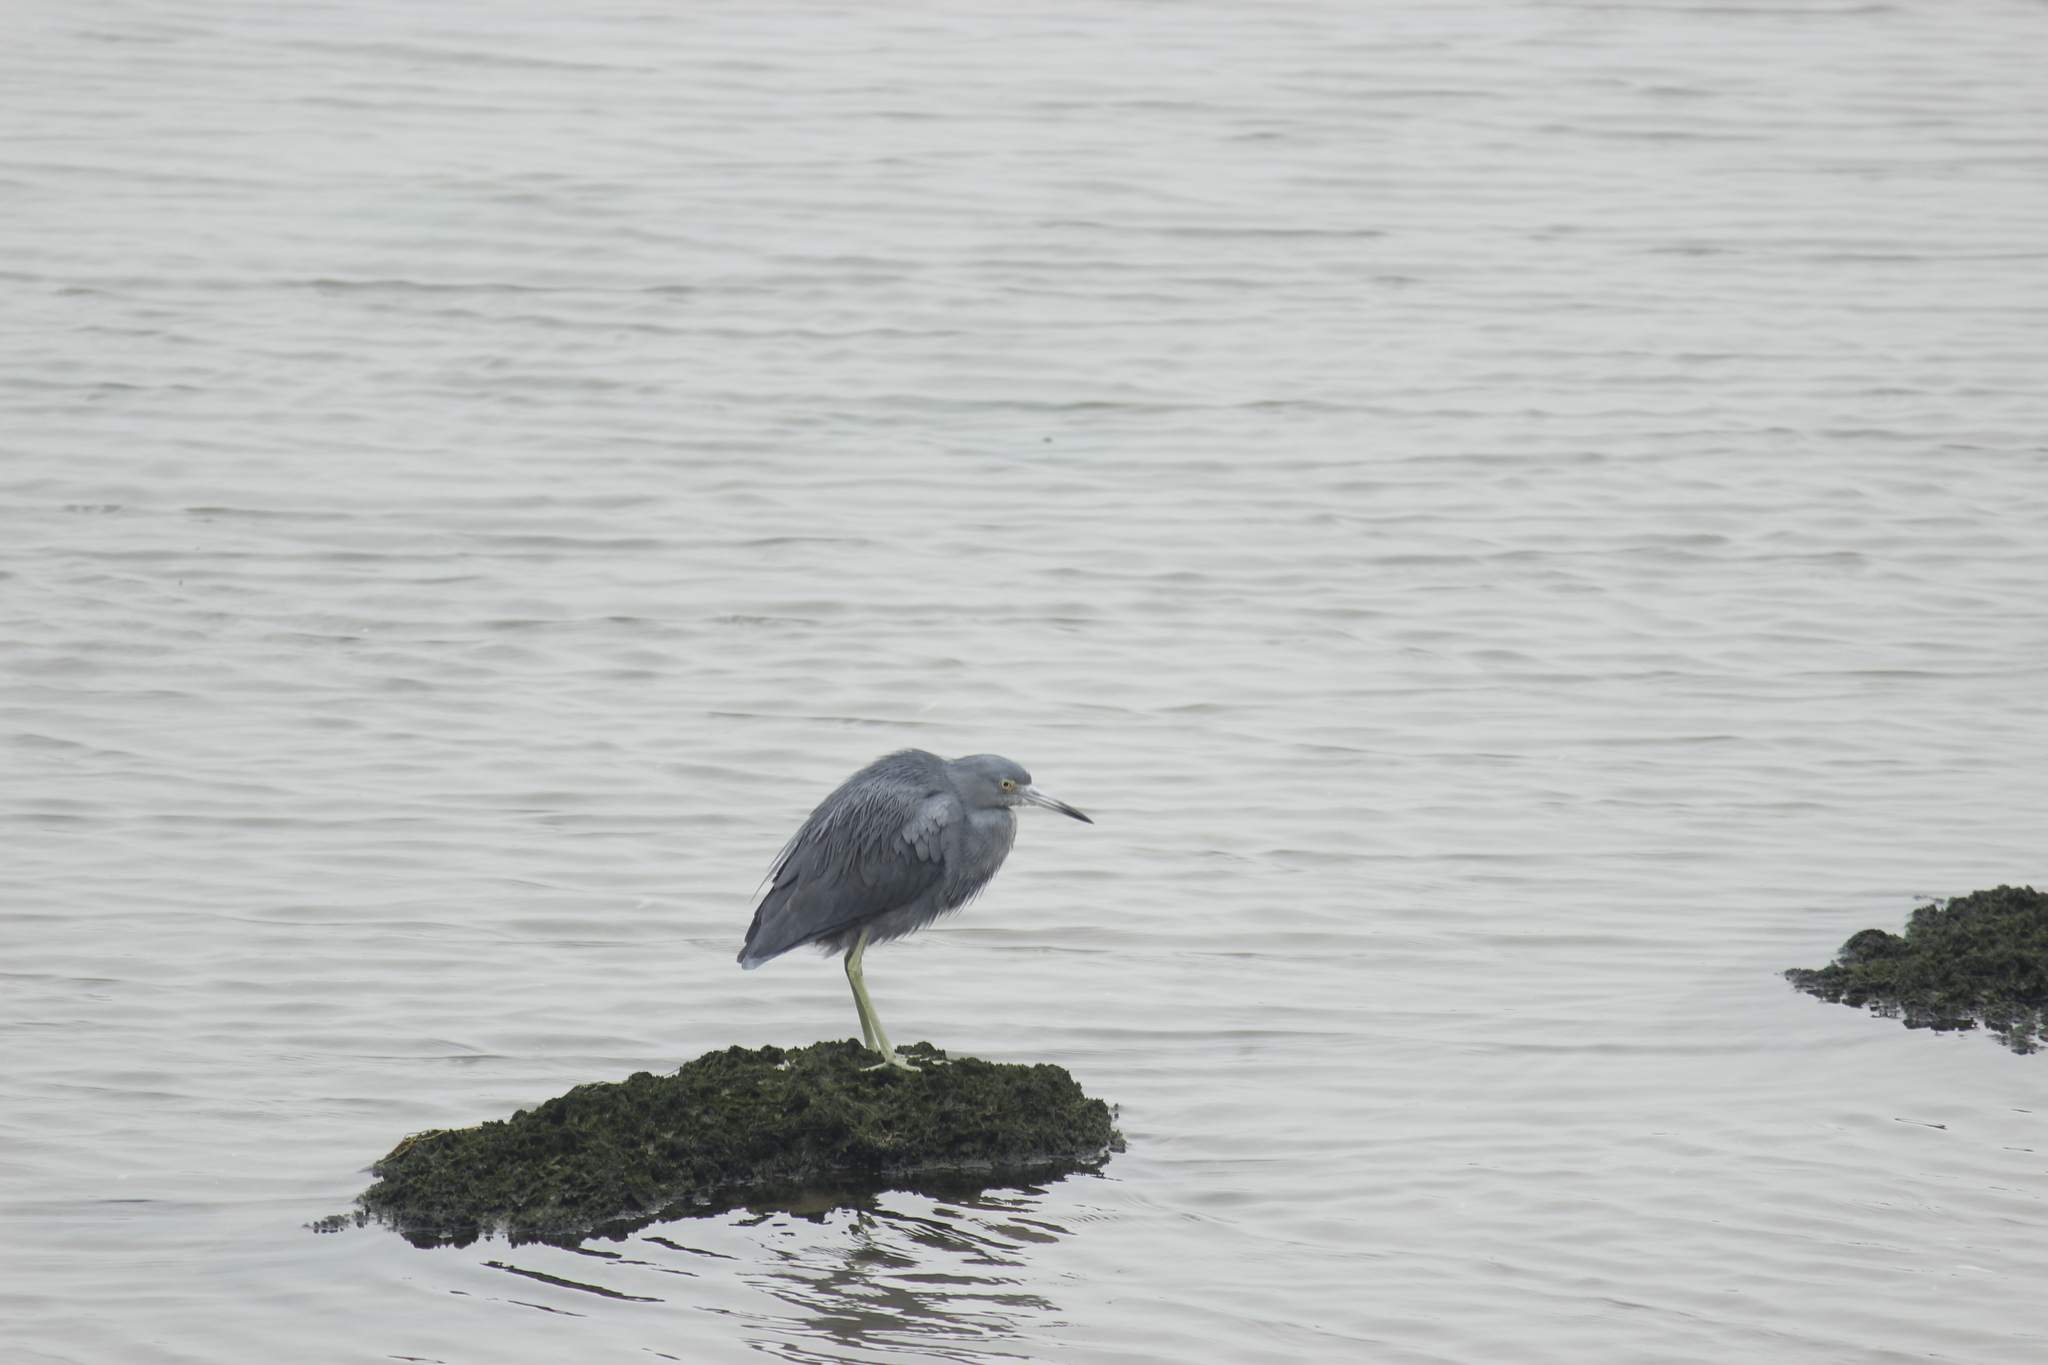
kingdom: Animalia
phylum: Chordata
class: Aves
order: Pelecaniformes
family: Ardeidae
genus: Egretta
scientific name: Egretta caerulea
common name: Little blue heron
